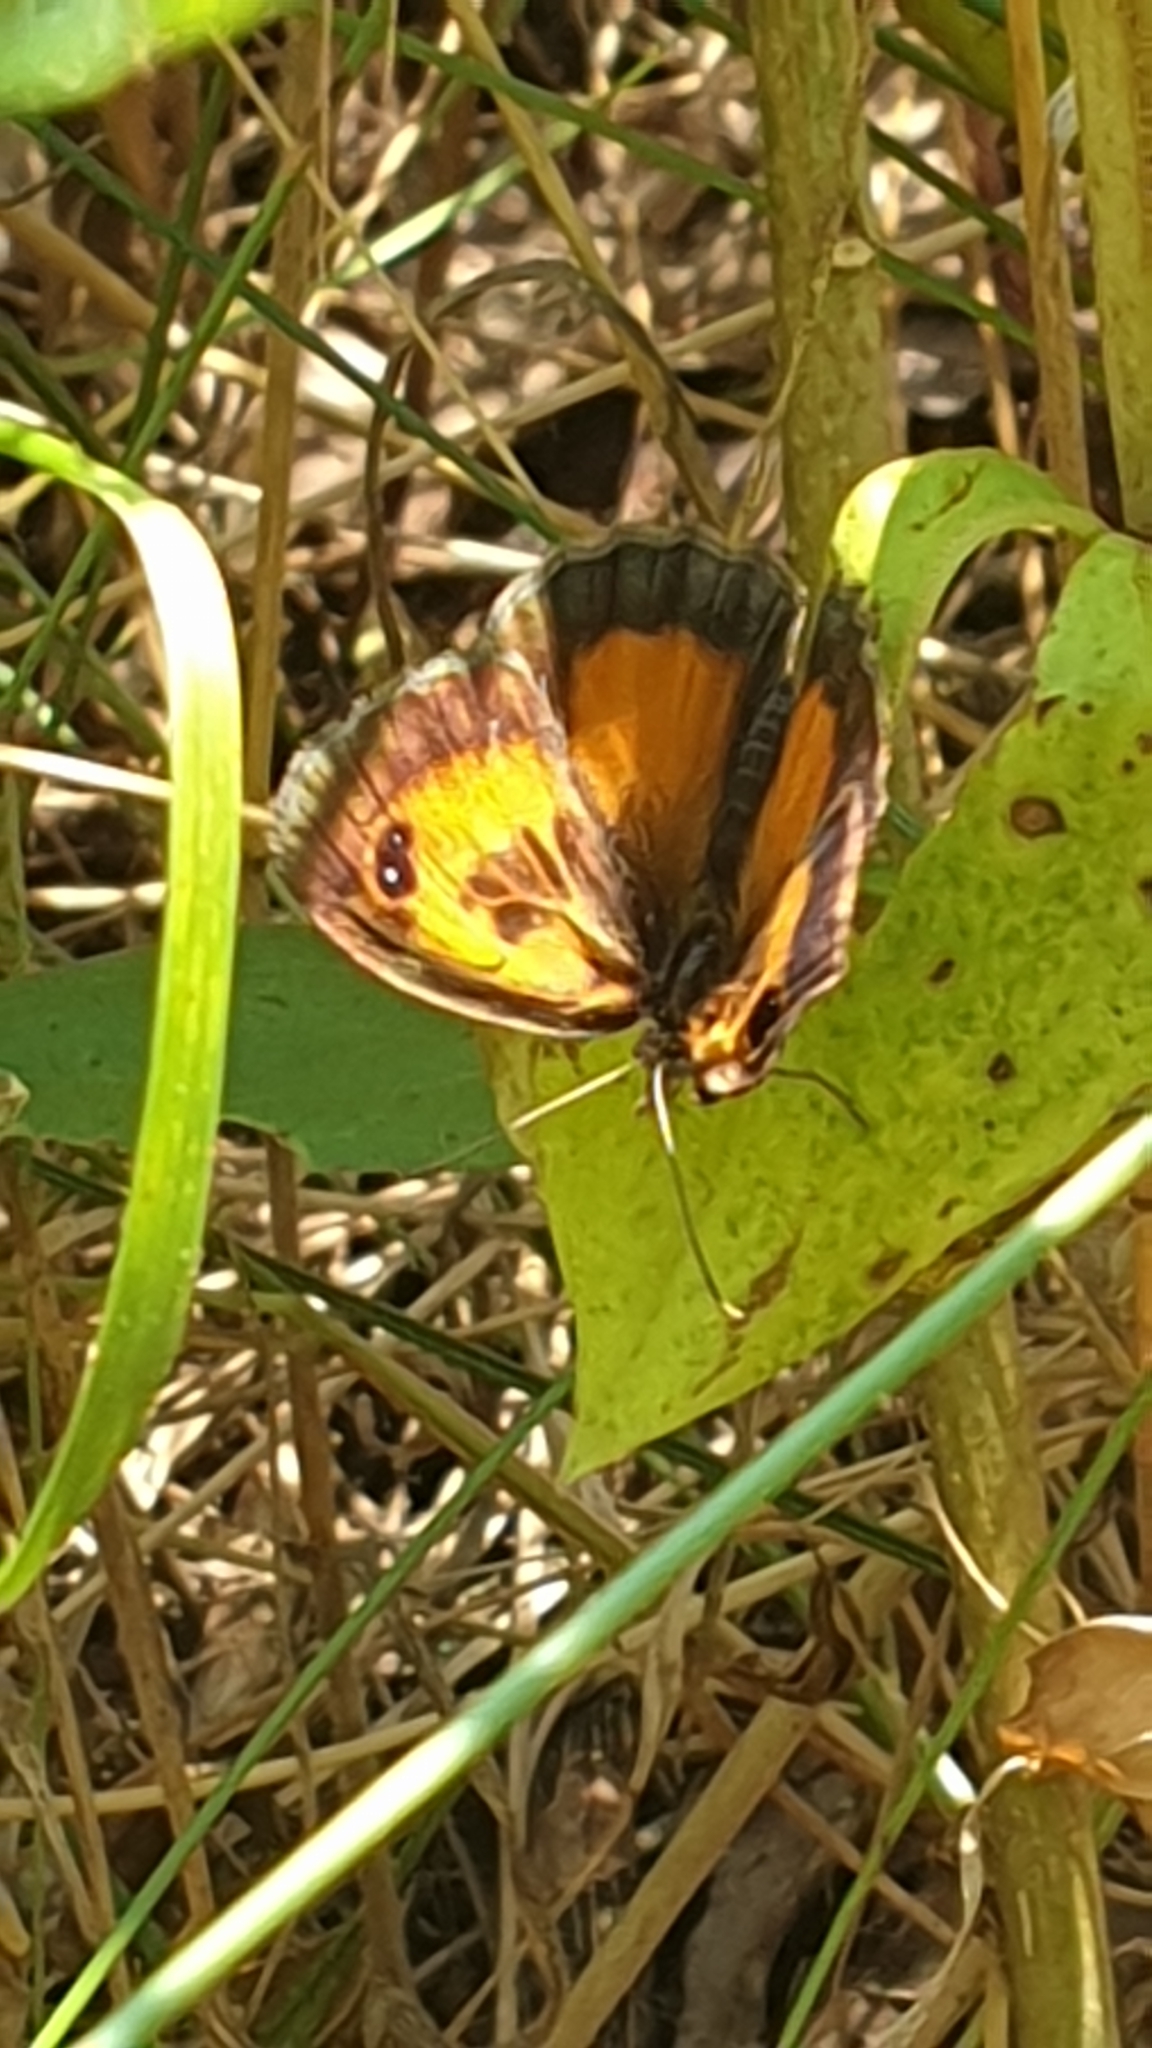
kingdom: Animalia
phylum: Arthropoda
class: Insecta
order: Lepidoptera
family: Nymphalidae
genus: Pyronia
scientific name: Pyronia cecilia
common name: Southern gatekeeper
